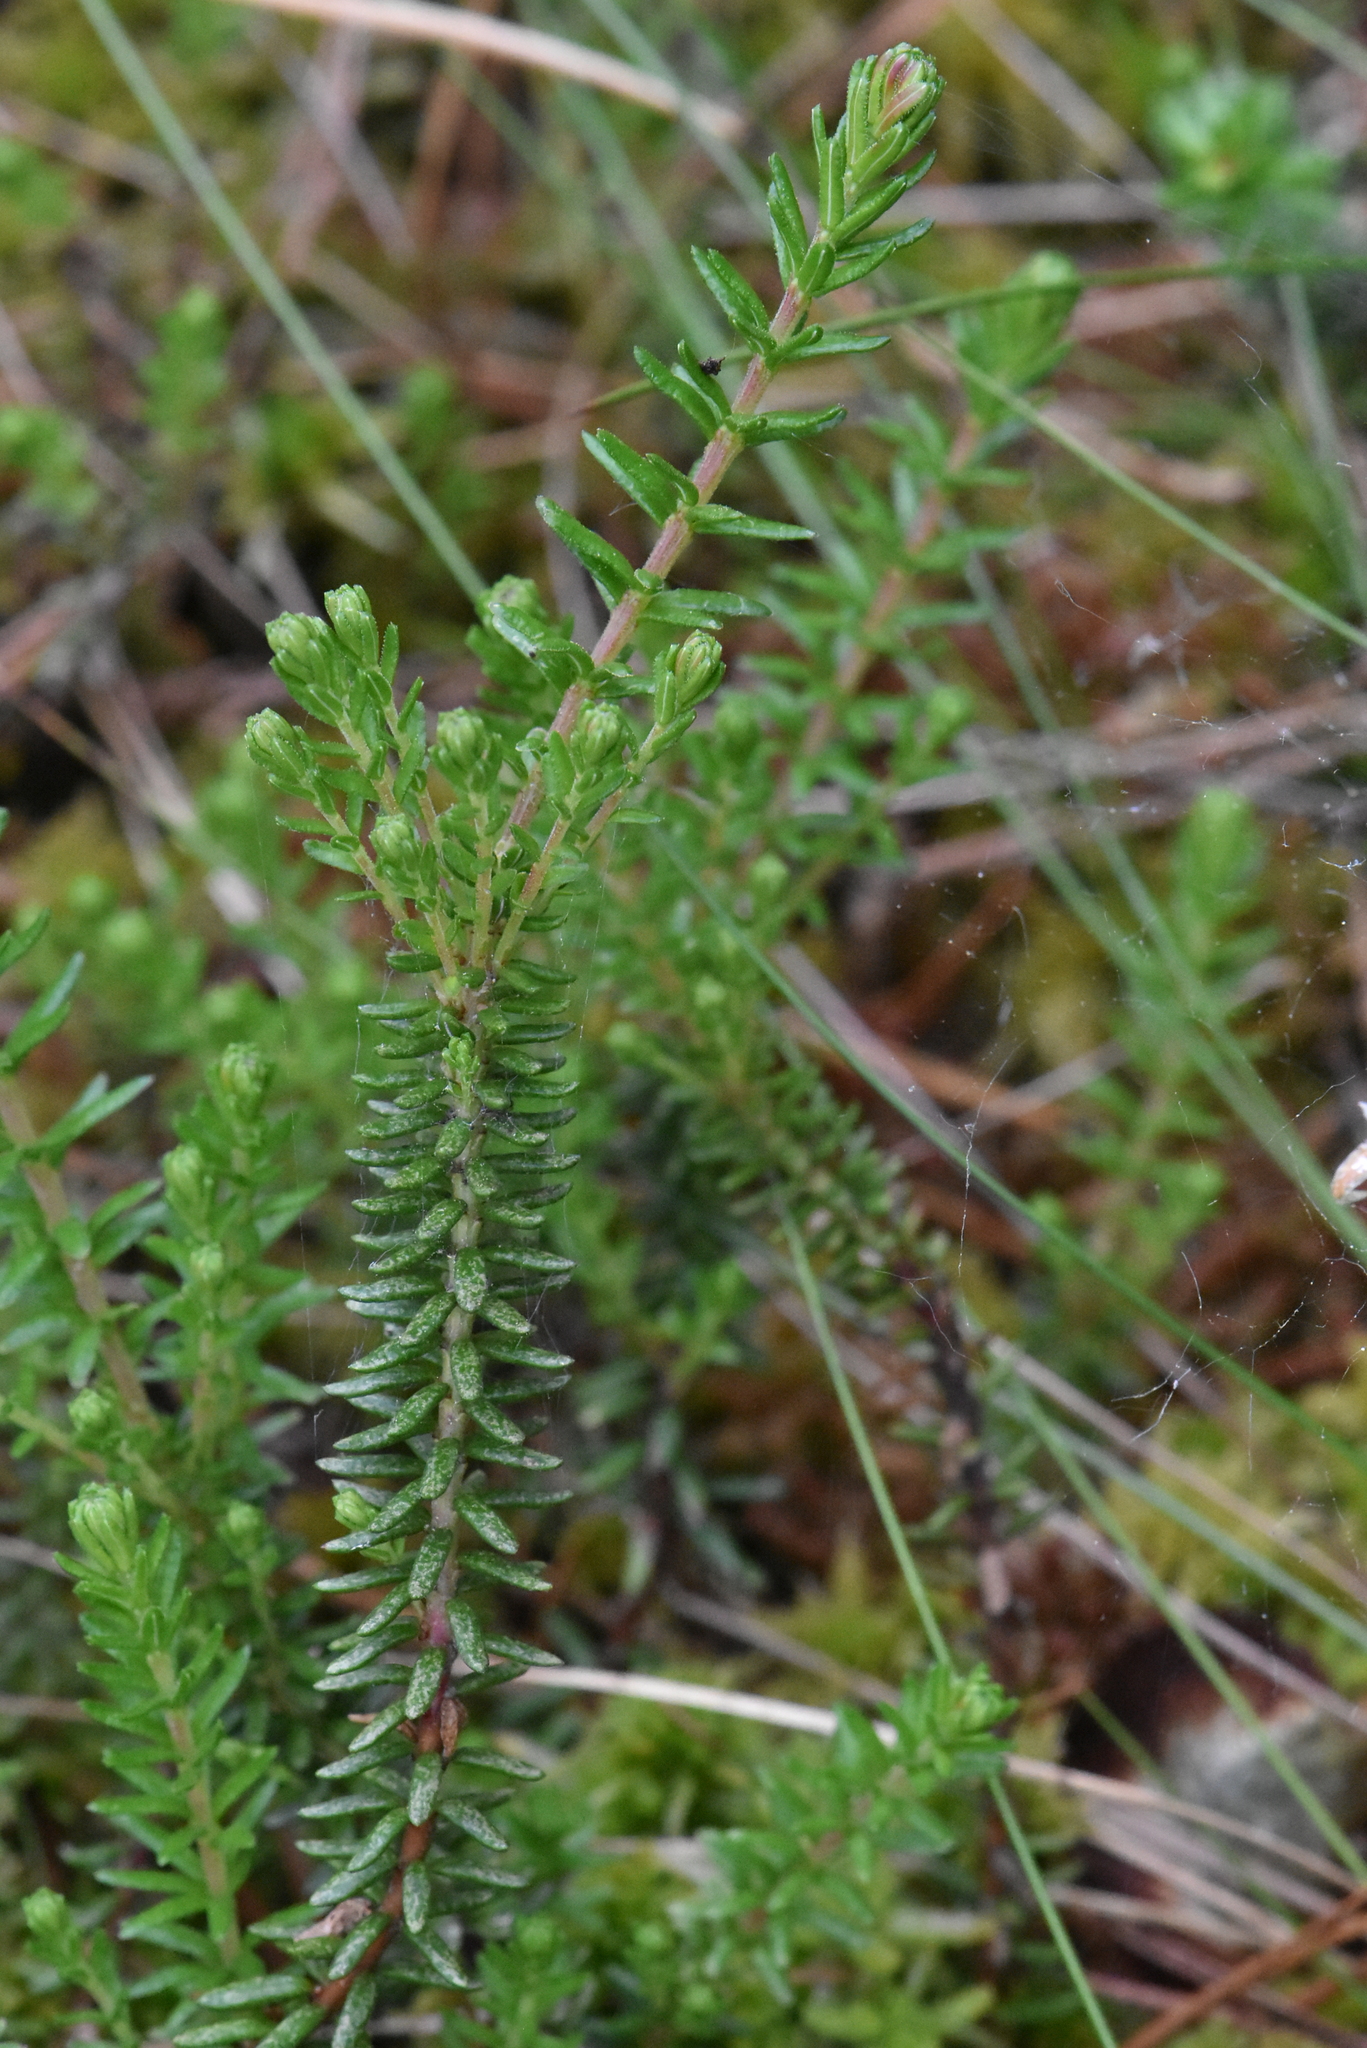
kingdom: Plantae
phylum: Tracheophyta
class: Magnoliopsida
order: Ericales
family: Ericaceae
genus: Empetrum
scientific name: Empetrum nigrum
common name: Black crowberry
